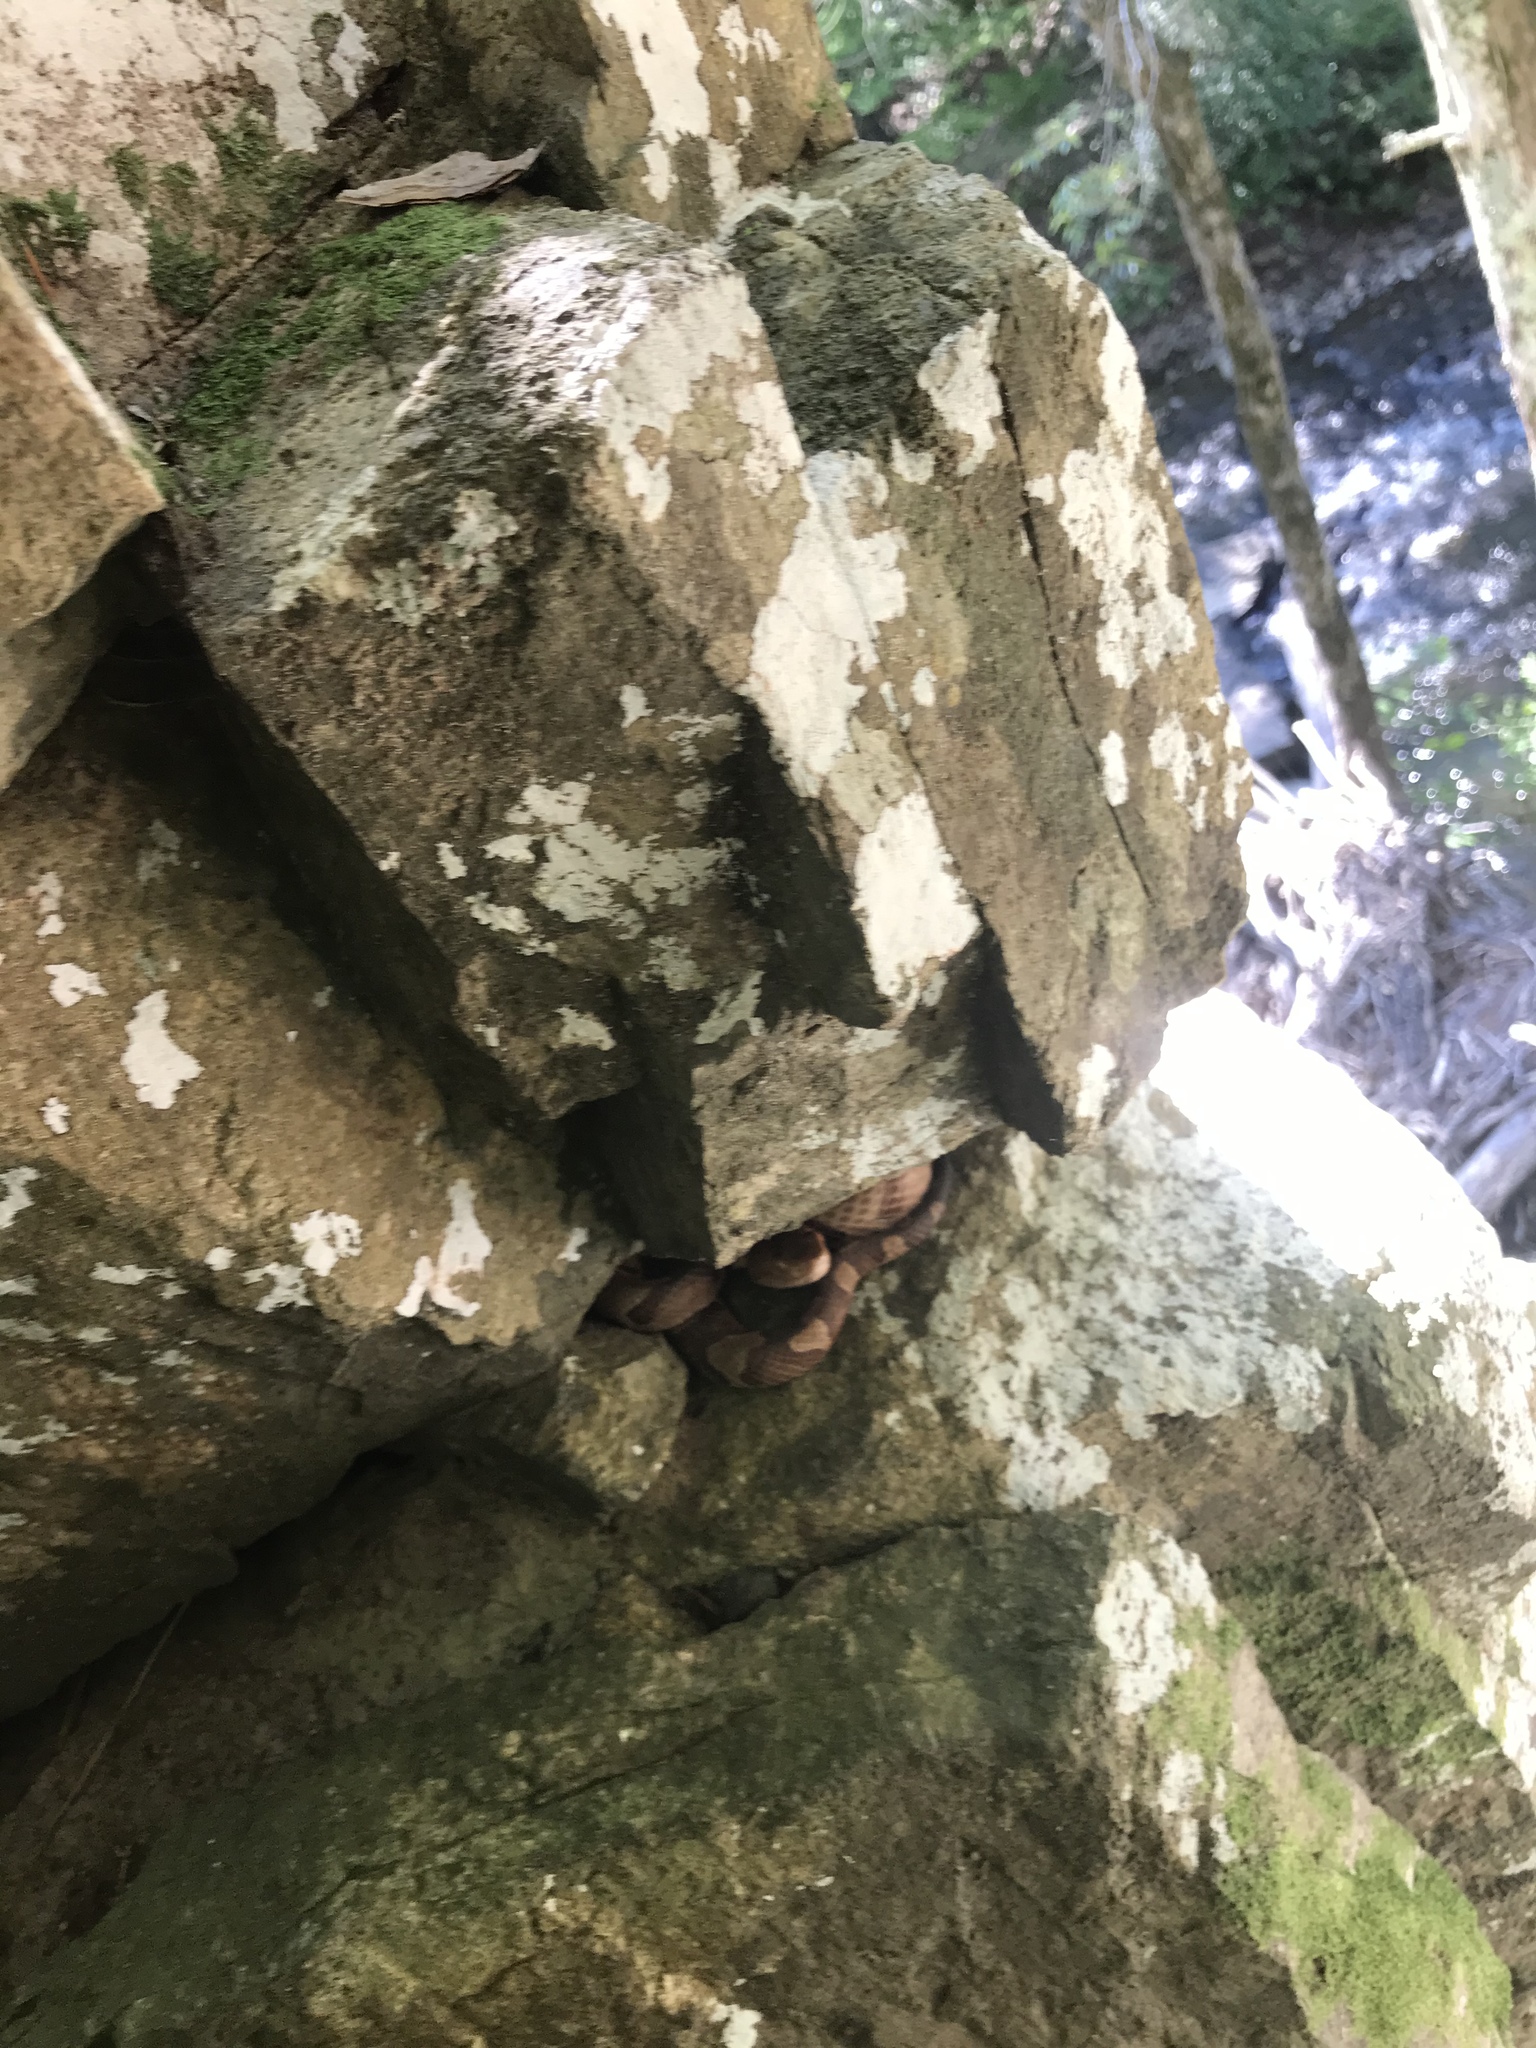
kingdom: Animalia
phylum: Chordata
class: Squamata
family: Viperidae
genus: Agkistrodon
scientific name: Agkistrodon contortrix
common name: Northern copperhead
